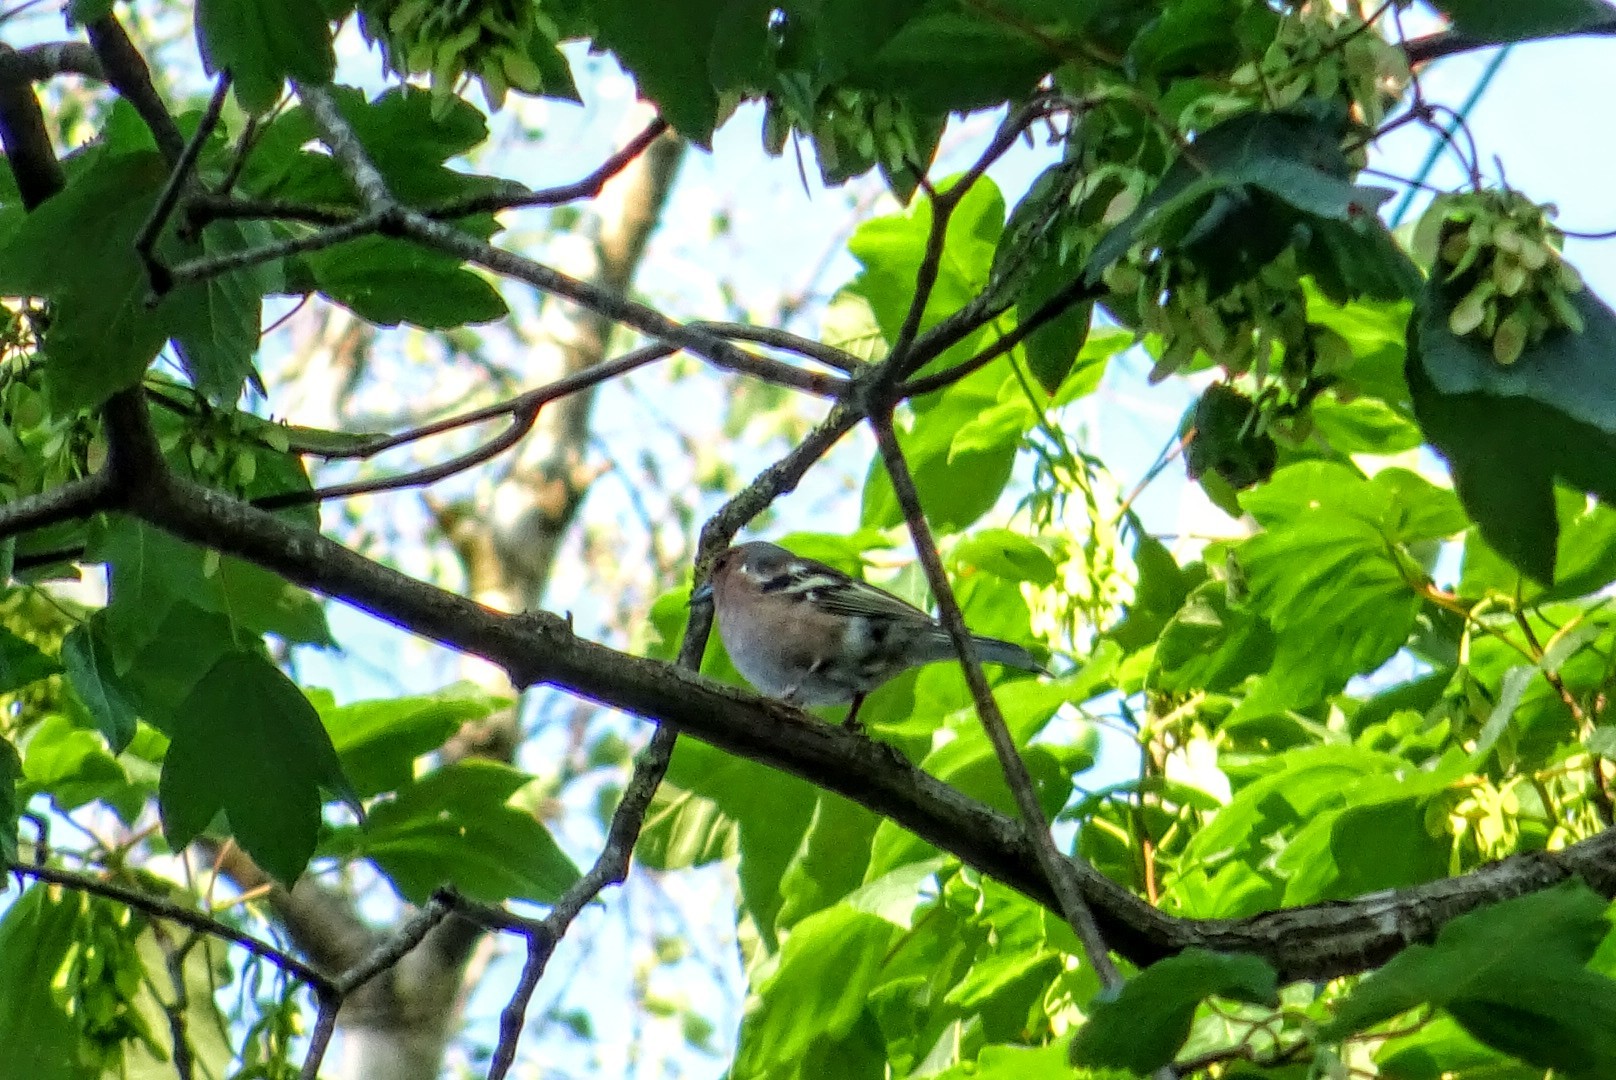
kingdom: Animalia
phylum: Chordata
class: Aves
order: Passeriformes
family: Fringillidae
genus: Fringilla
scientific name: Fringilla coelebs
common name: Common chaffinch
